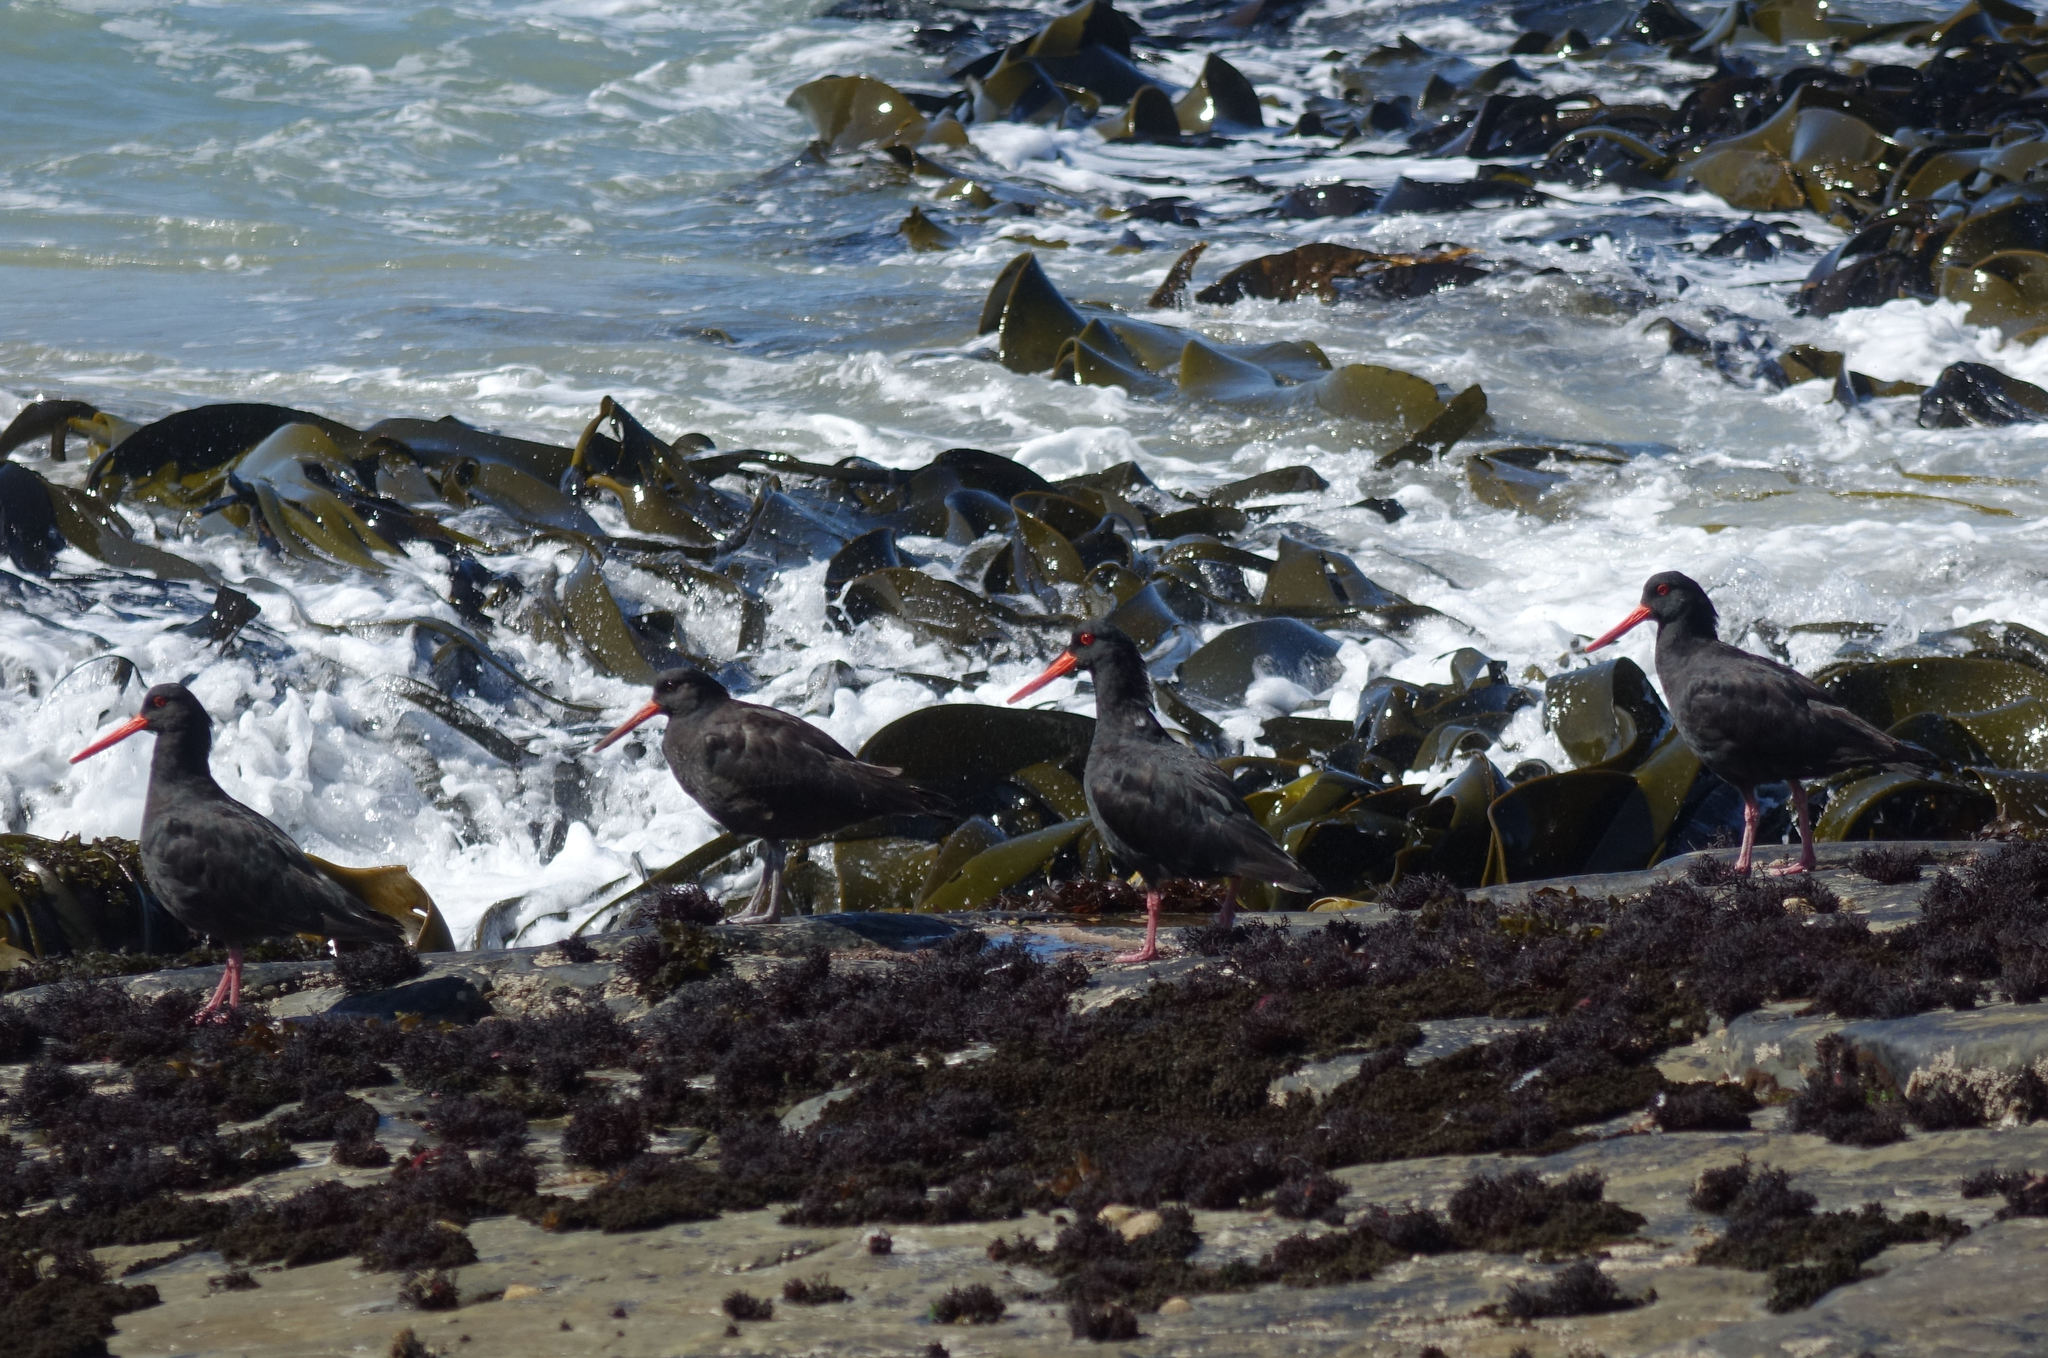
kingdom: Animalia
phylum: Chordata
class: Aves
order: Charadriiformes
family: Haematopodidae
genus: Haematopus
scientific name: Haematopus unicolor
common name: Variable oystercatcher
